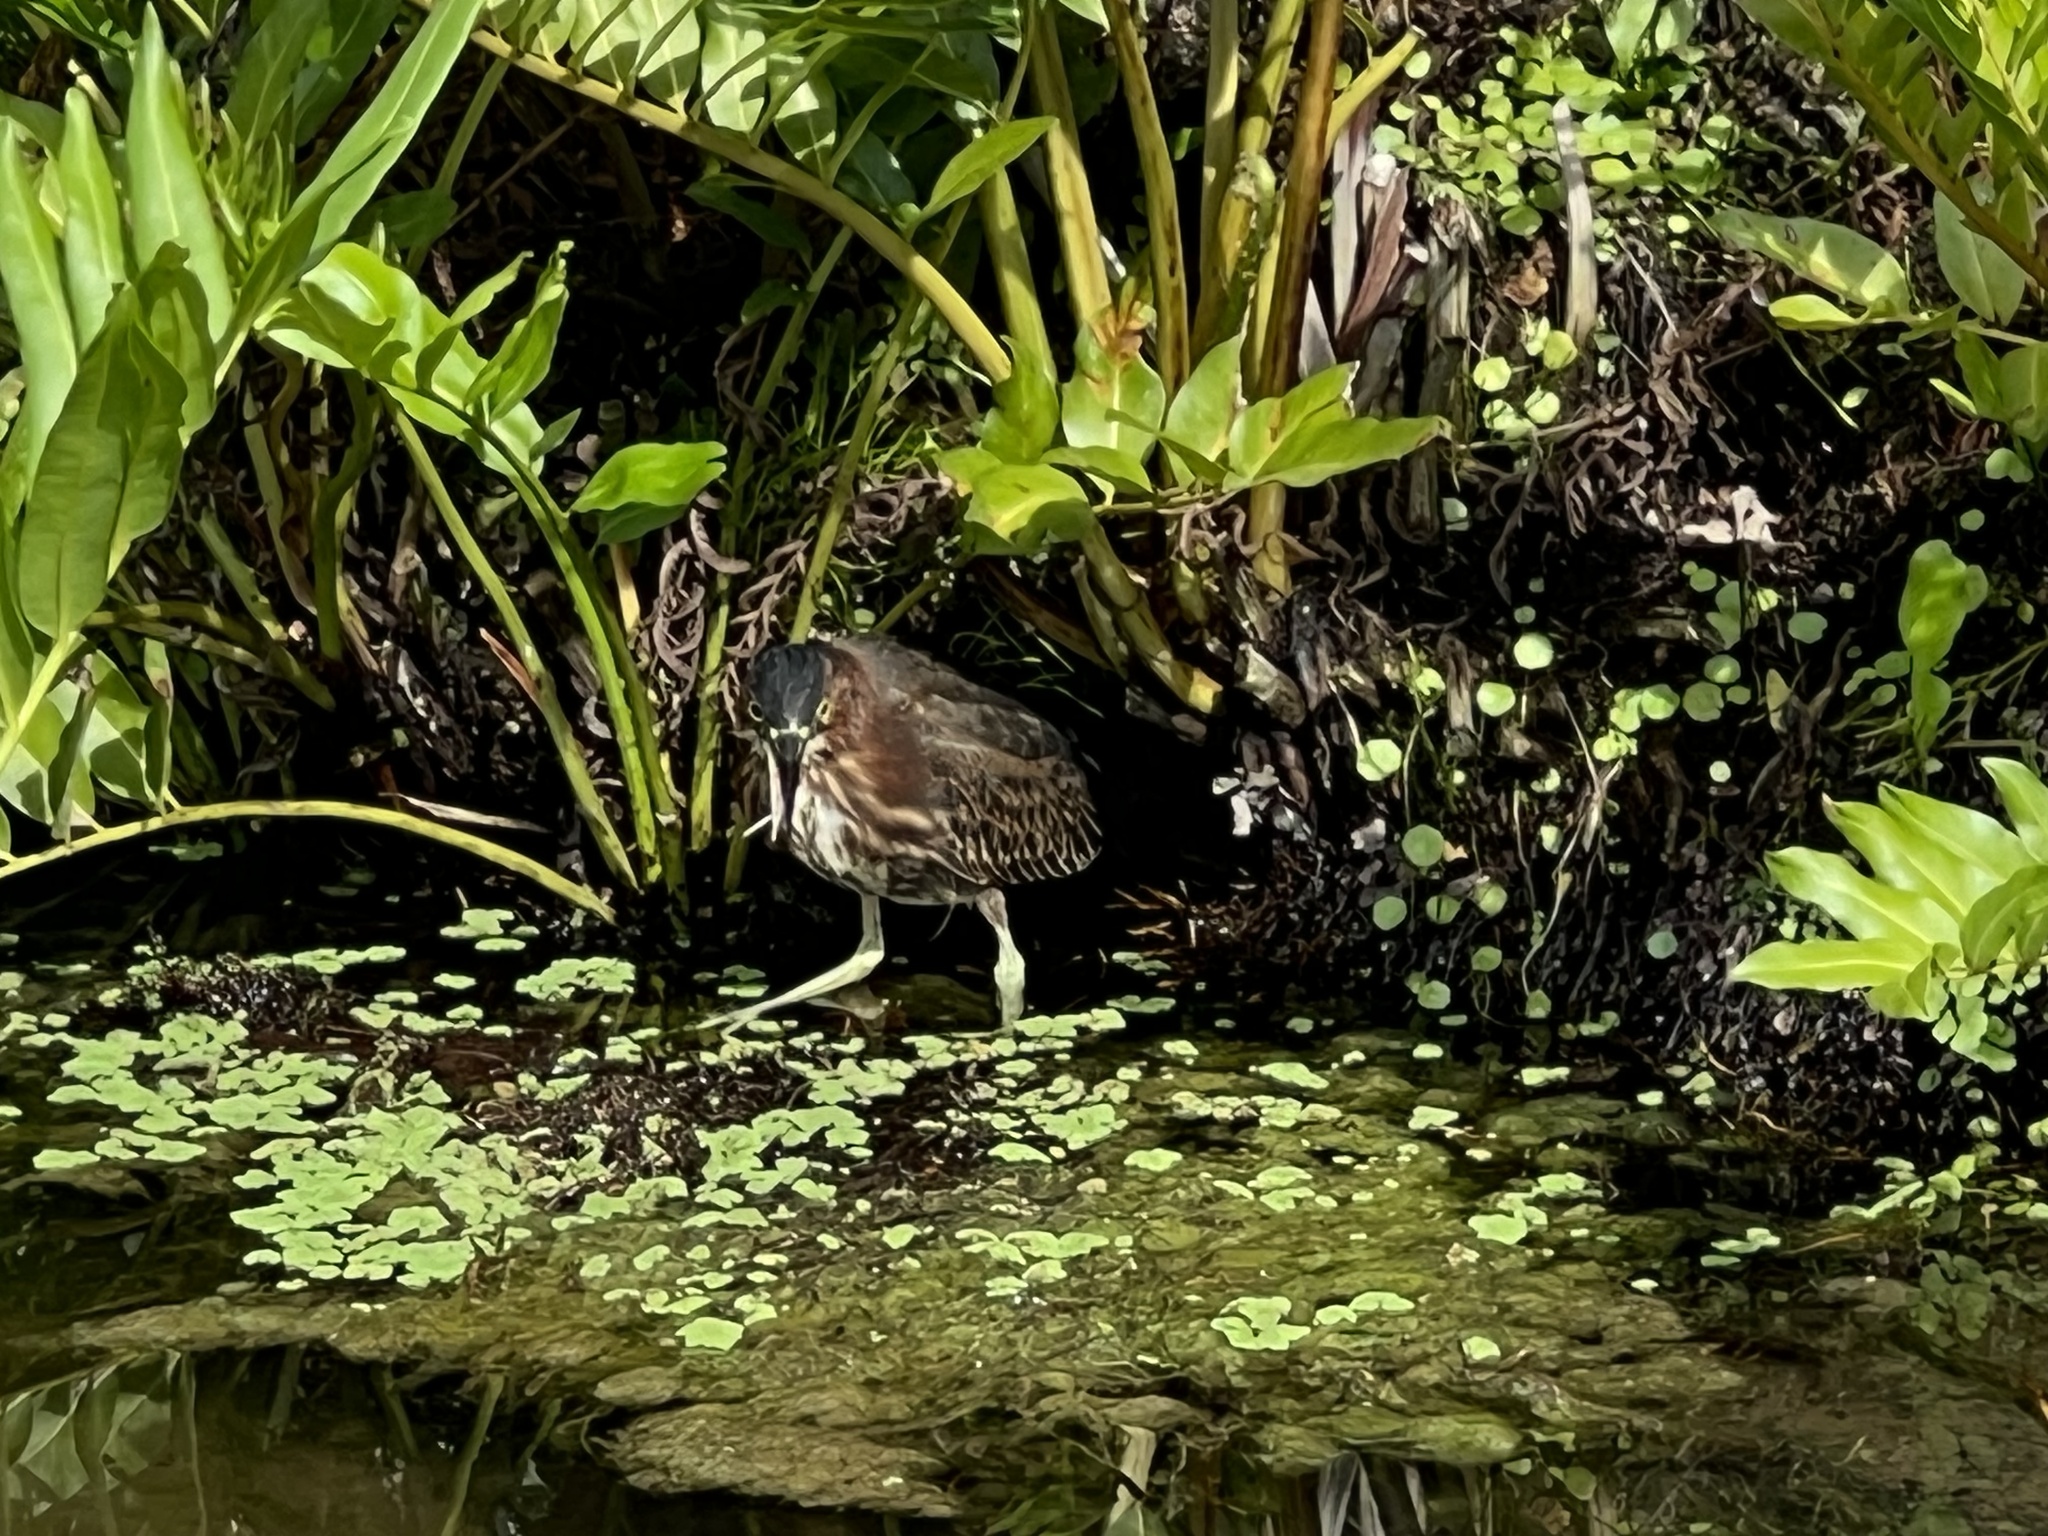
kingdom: Animalia
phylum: Chordata
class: Aves
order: Pelecaniformes
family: Ardeidae
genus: Butorides
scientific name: Butorides virescens
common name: Green heron
